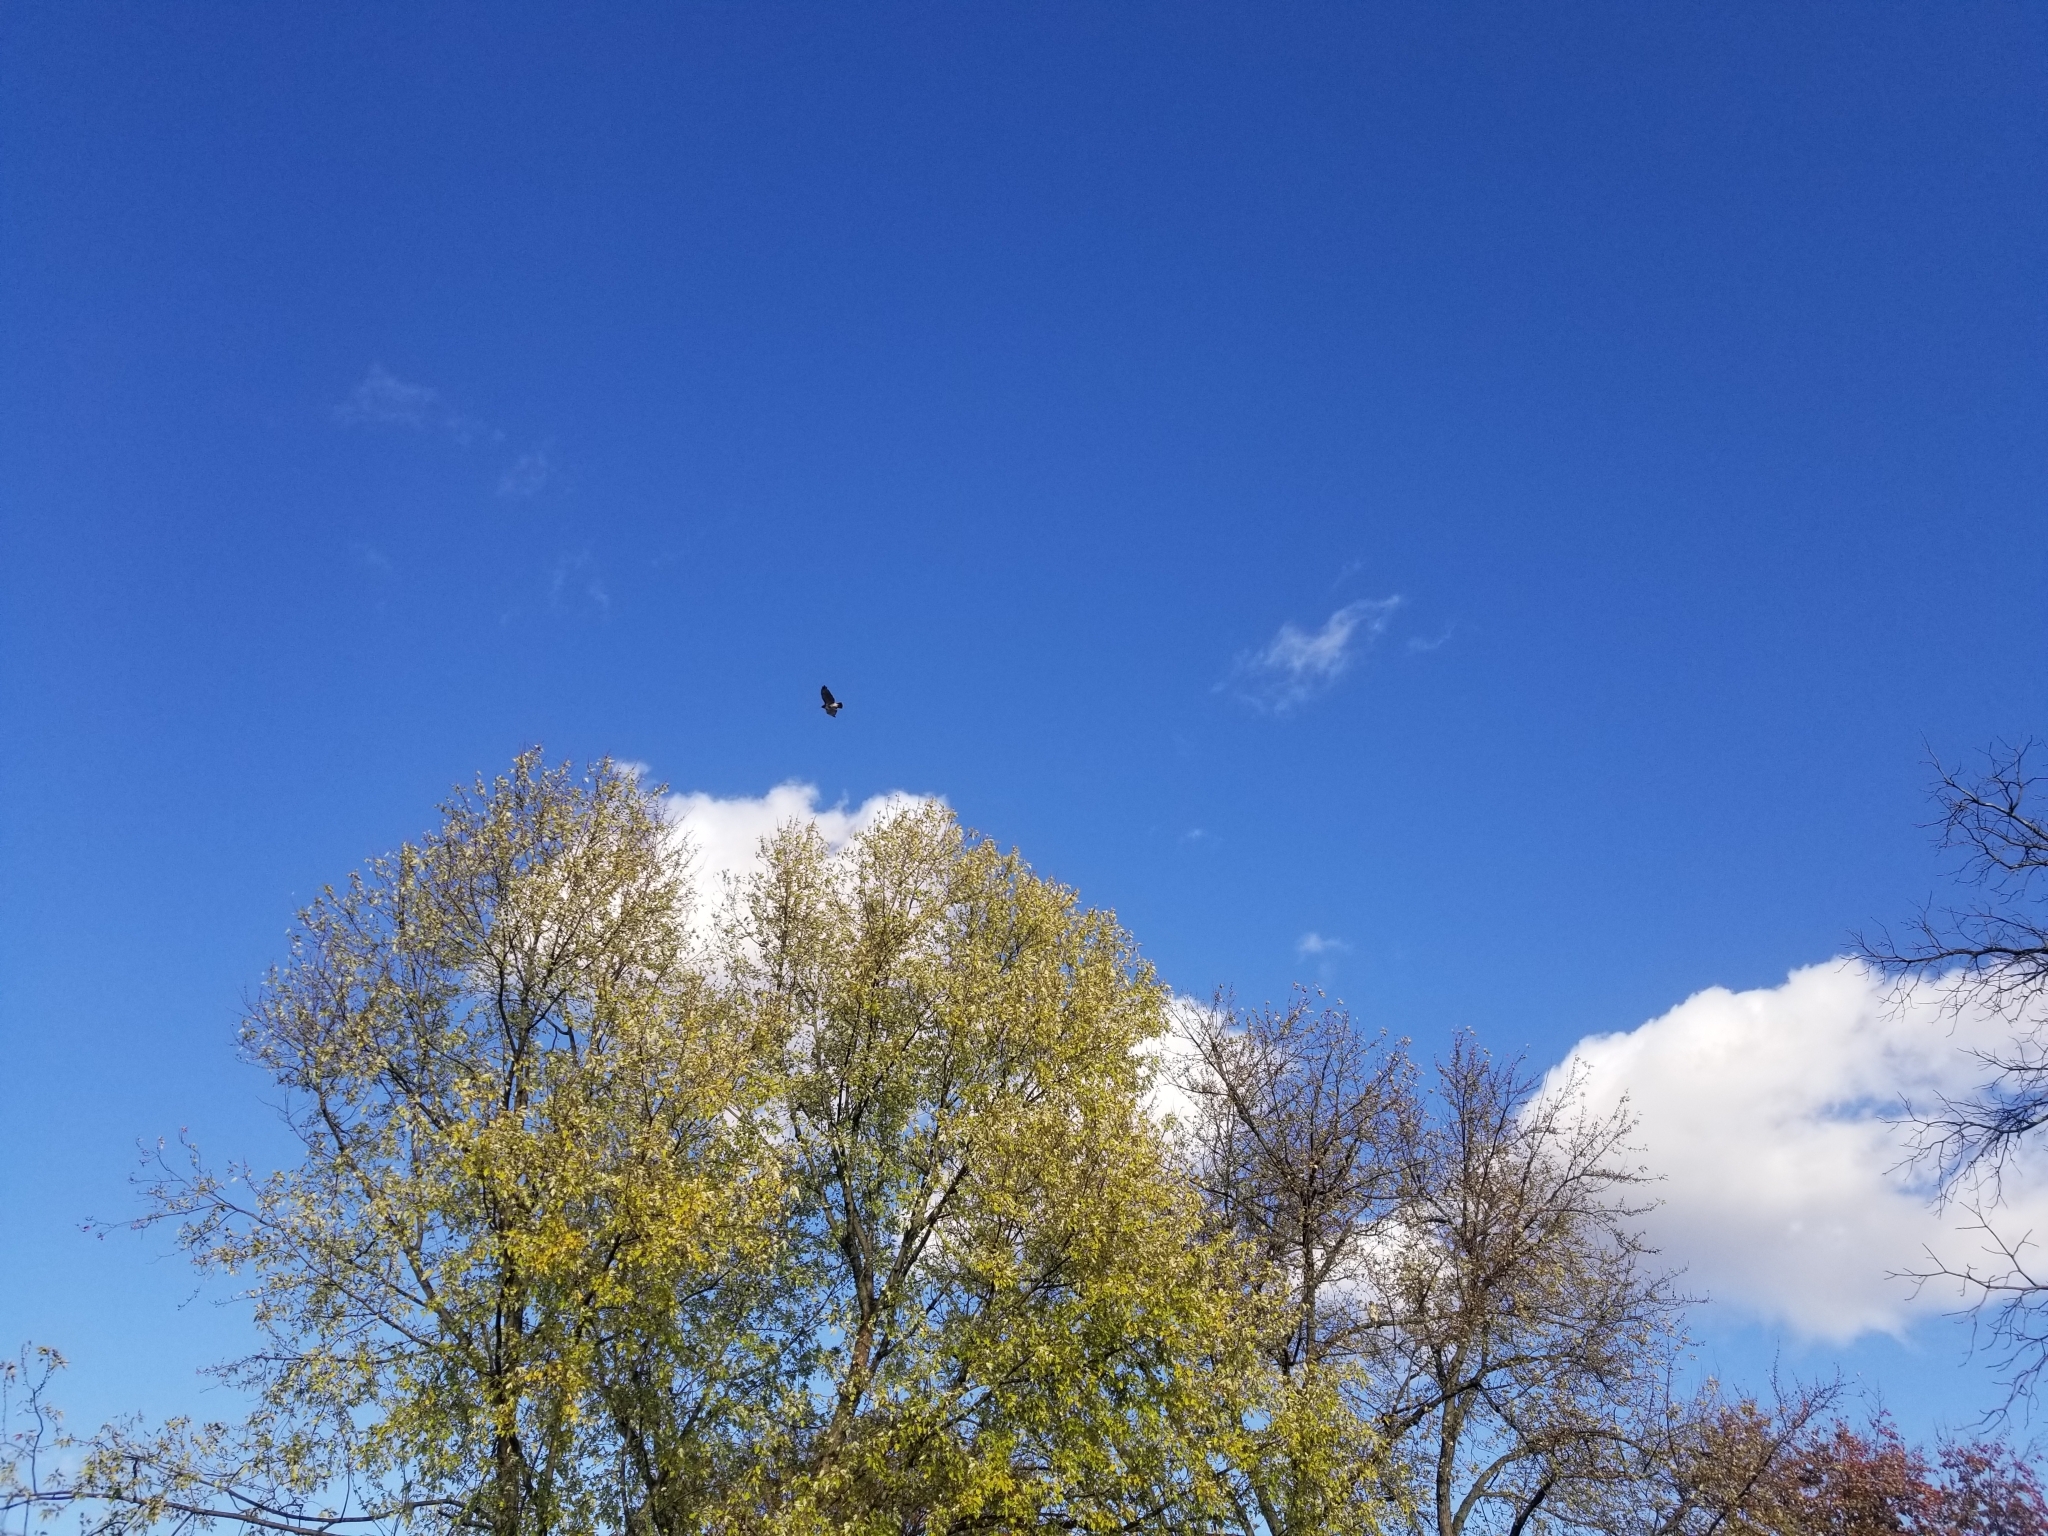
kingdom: Animalia
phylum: Chordata
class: Aves
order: Accipitriformes
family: Accipitridae
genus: Buteo
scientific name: Buteo jamaicensis
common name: Red-tailed hawk
